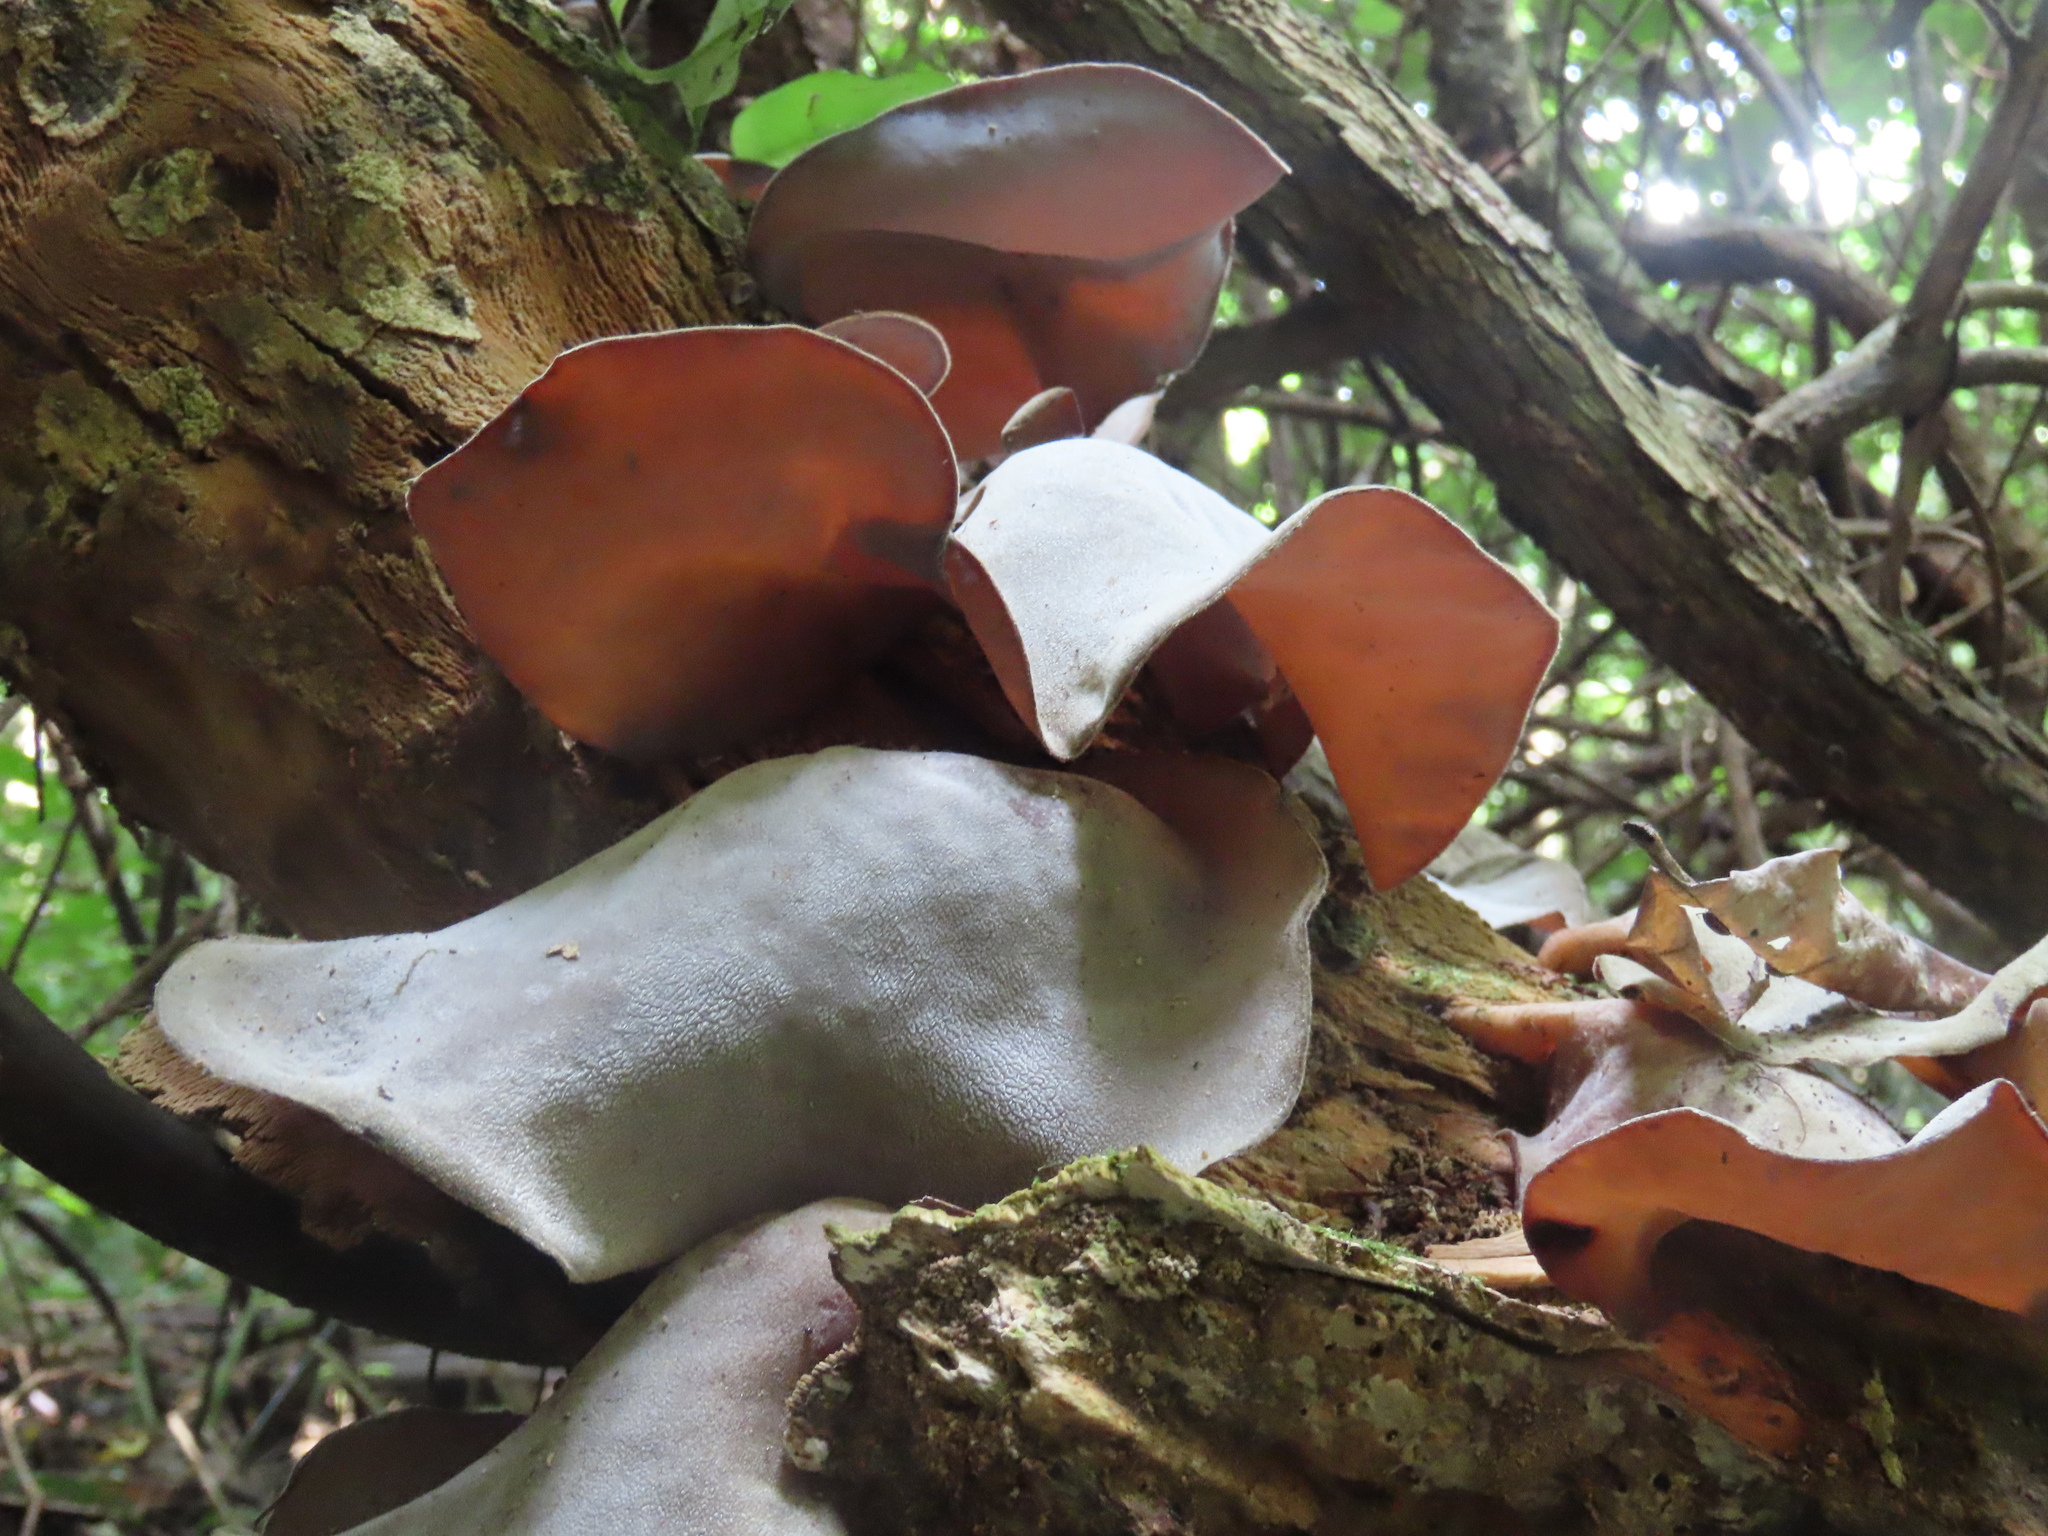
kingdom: Fungi
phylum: Basidiomycota
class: Agaricomycetes
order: Auriculariales
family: Auriculariaceae
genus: Auricularia
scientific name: Auricularia cornea
